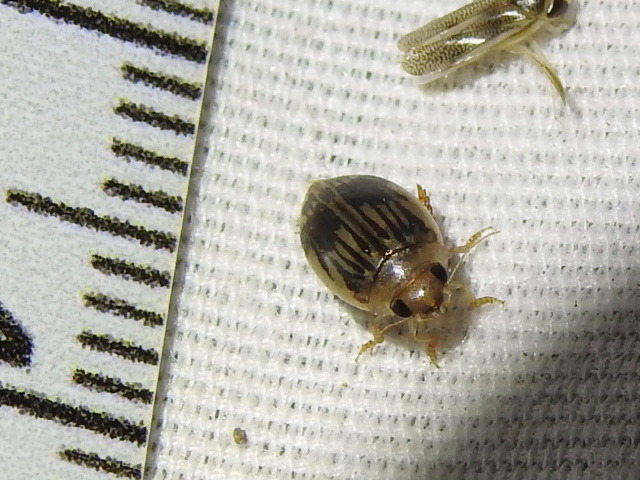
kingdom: Animalia
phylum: Arthropoda
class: Insecta
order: Coleoptera
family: Dytiscidae
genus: Laccophilus
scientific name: Laccophilus quadrilineatus
